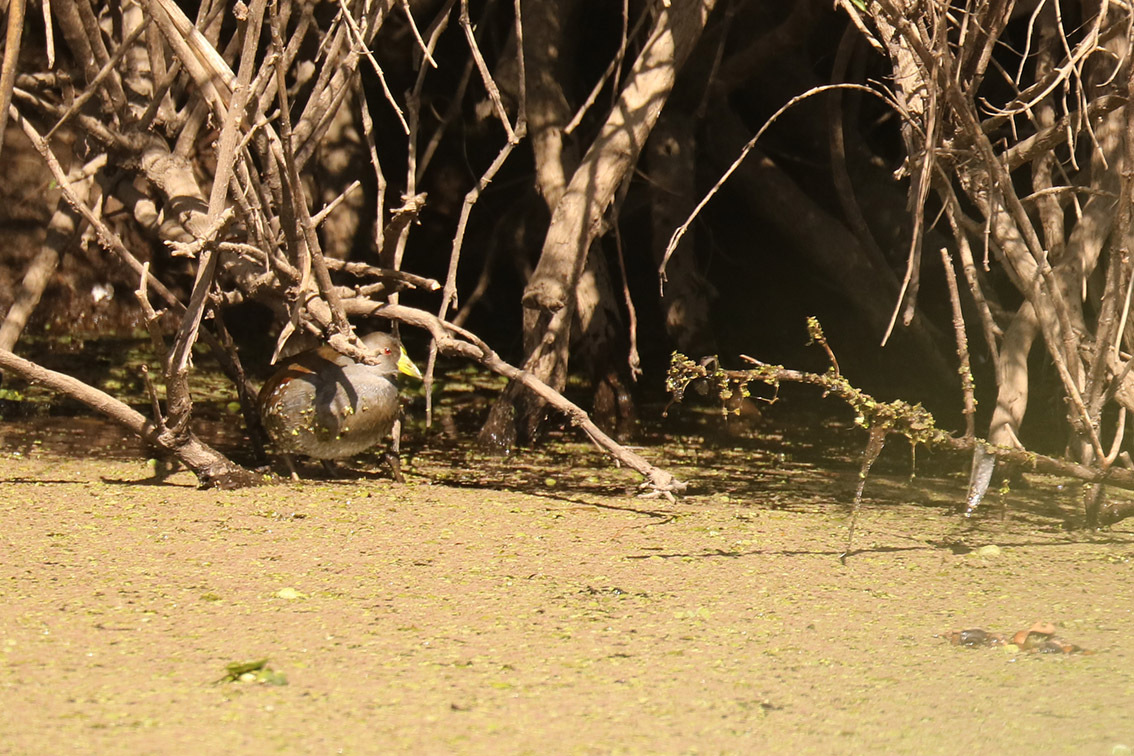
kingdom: Animalia
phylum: Chordata
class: Aves
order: Gruiformes
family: Rallidae
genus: Gallinula
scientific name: Gallinula melanops
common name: Spot-flanked gallinule
